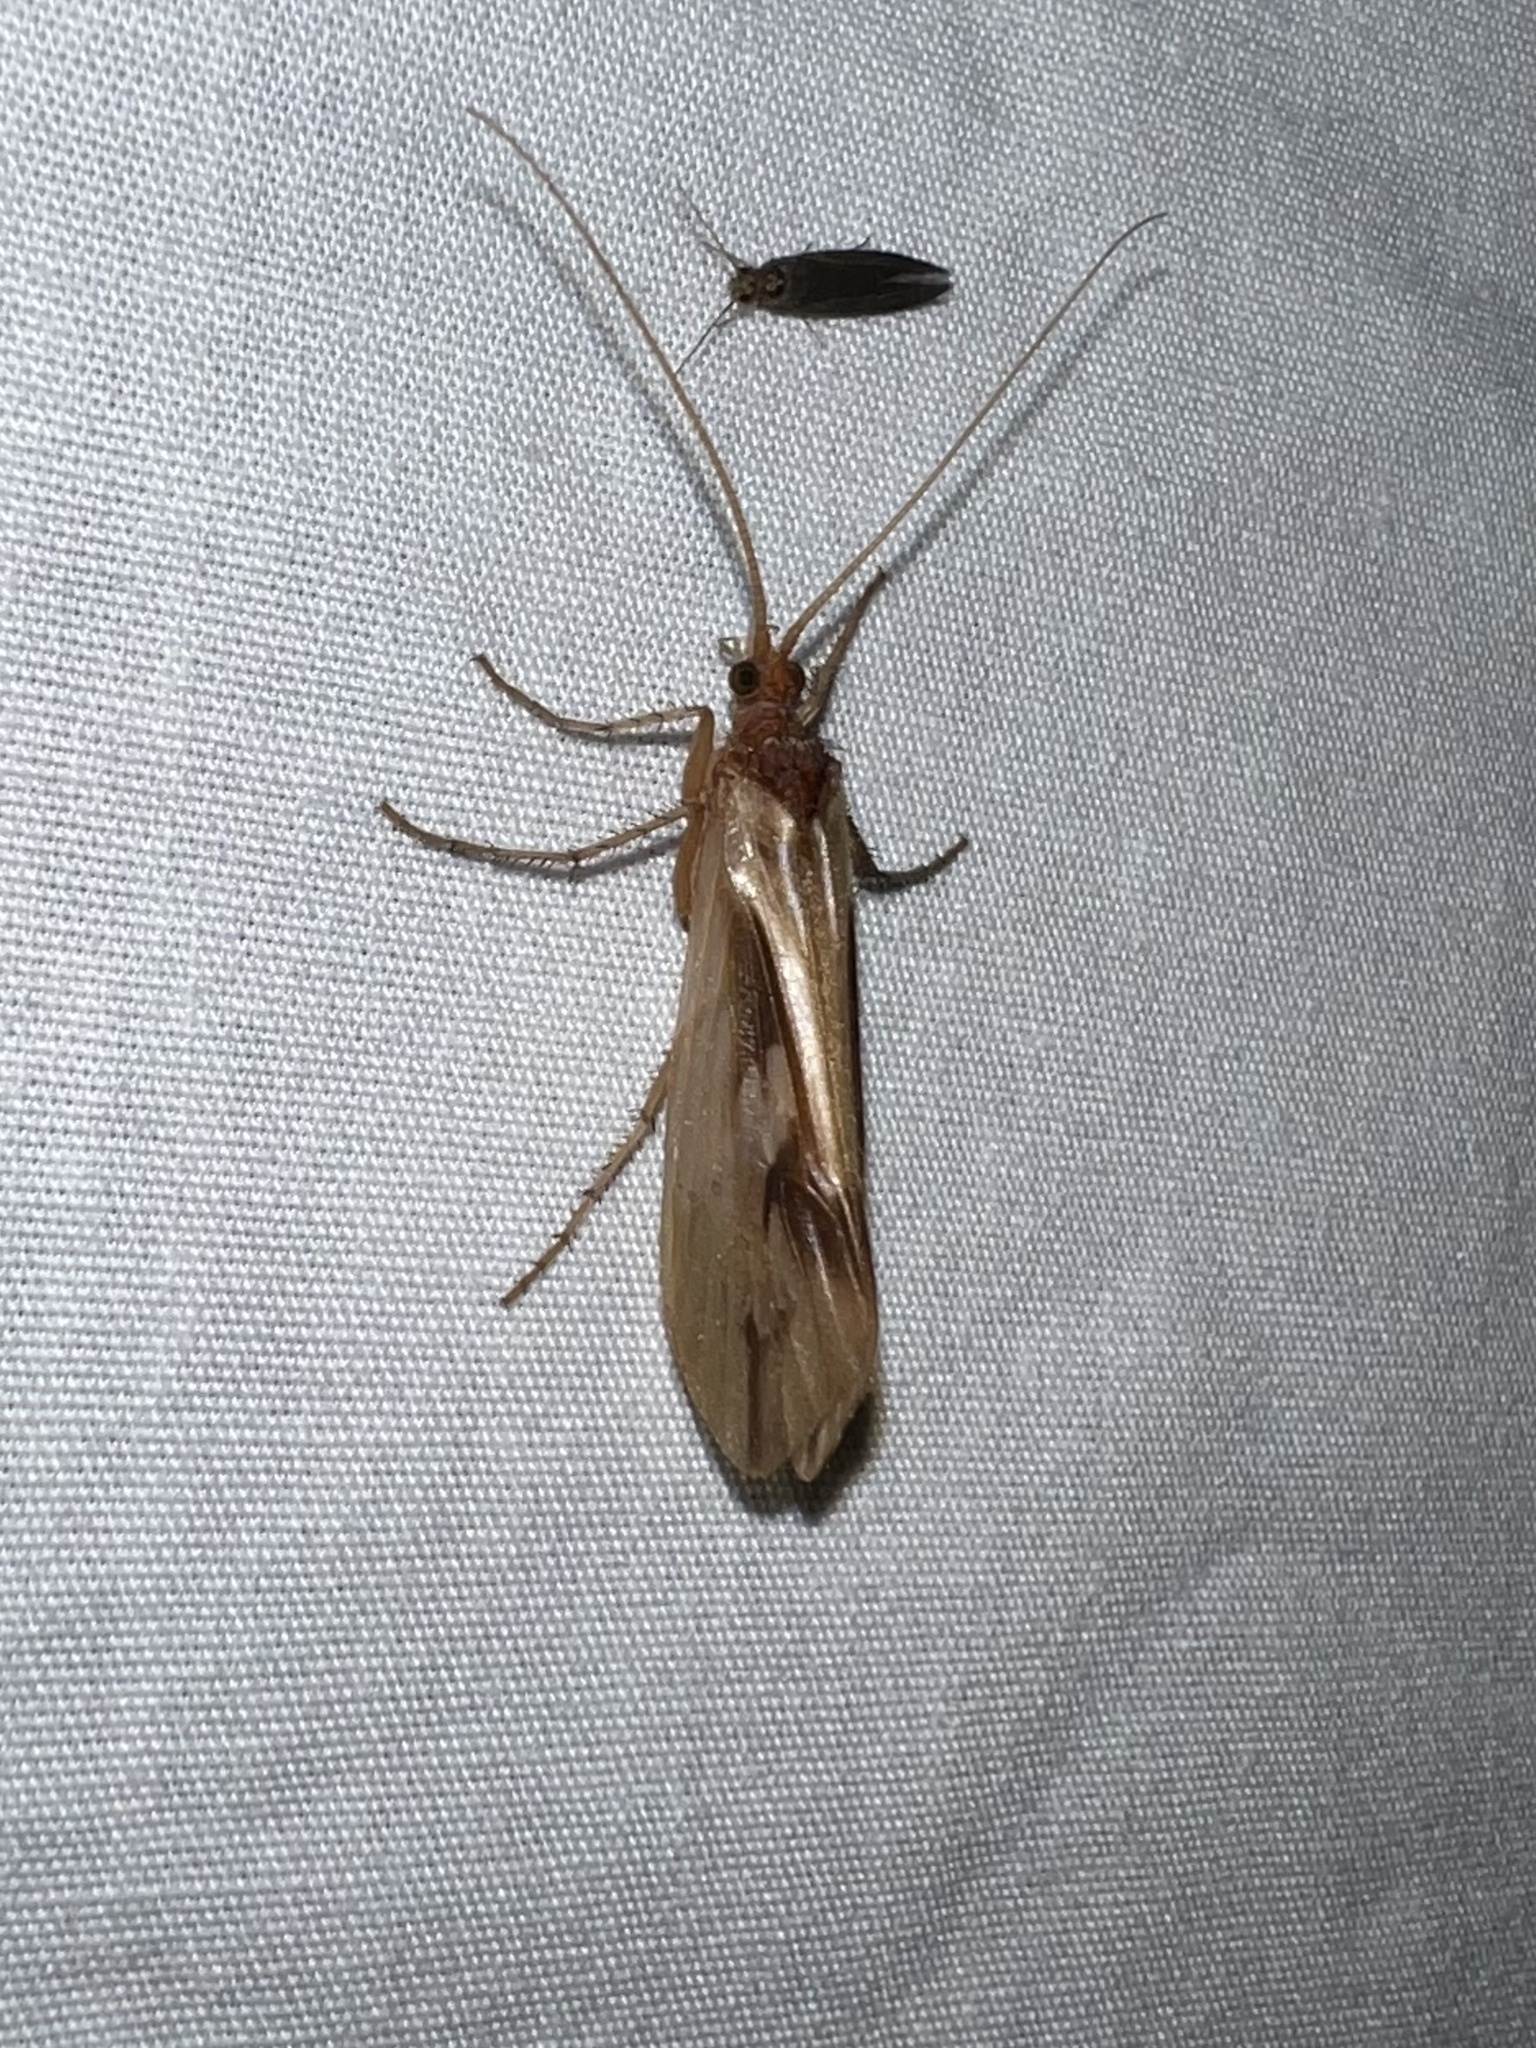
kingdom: Animalia
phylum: Arthropoda
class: Insecta
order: Trichoptera
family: Limnephilidae
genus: Platycentropus
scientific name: Platycentropus radiatus
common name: Chocolate-and-cream sedge
